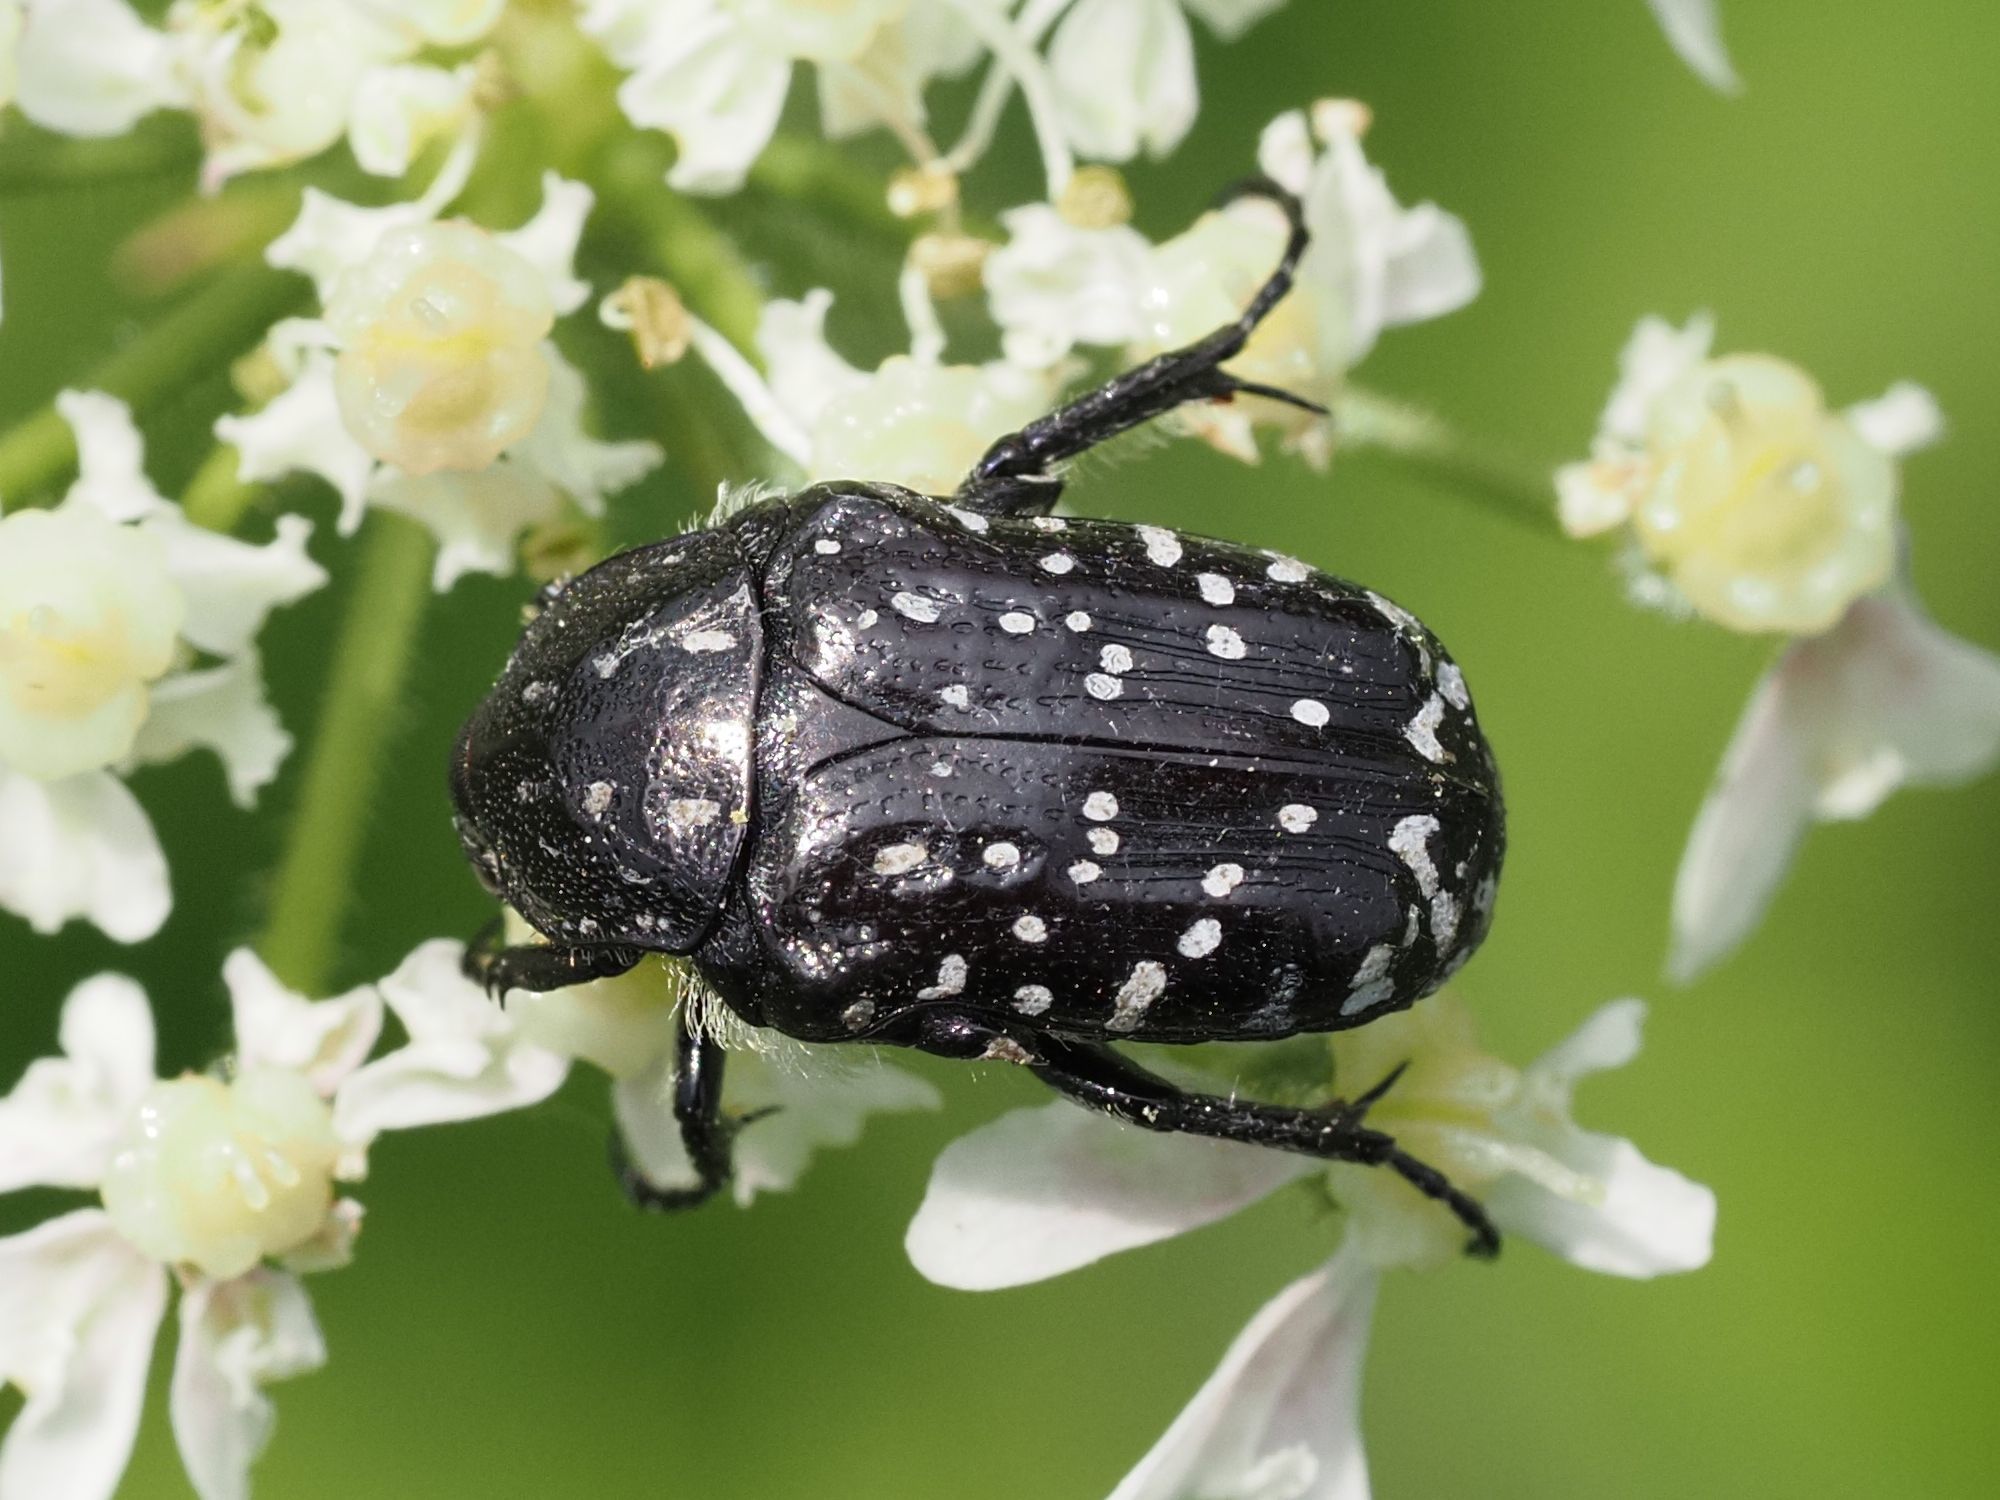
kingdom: Animalia
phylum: Arthropoda
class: Insecta
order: Coleoptera
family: Scarabaeidae
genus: Oxythyrea
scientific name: Oxythyrea funesta
